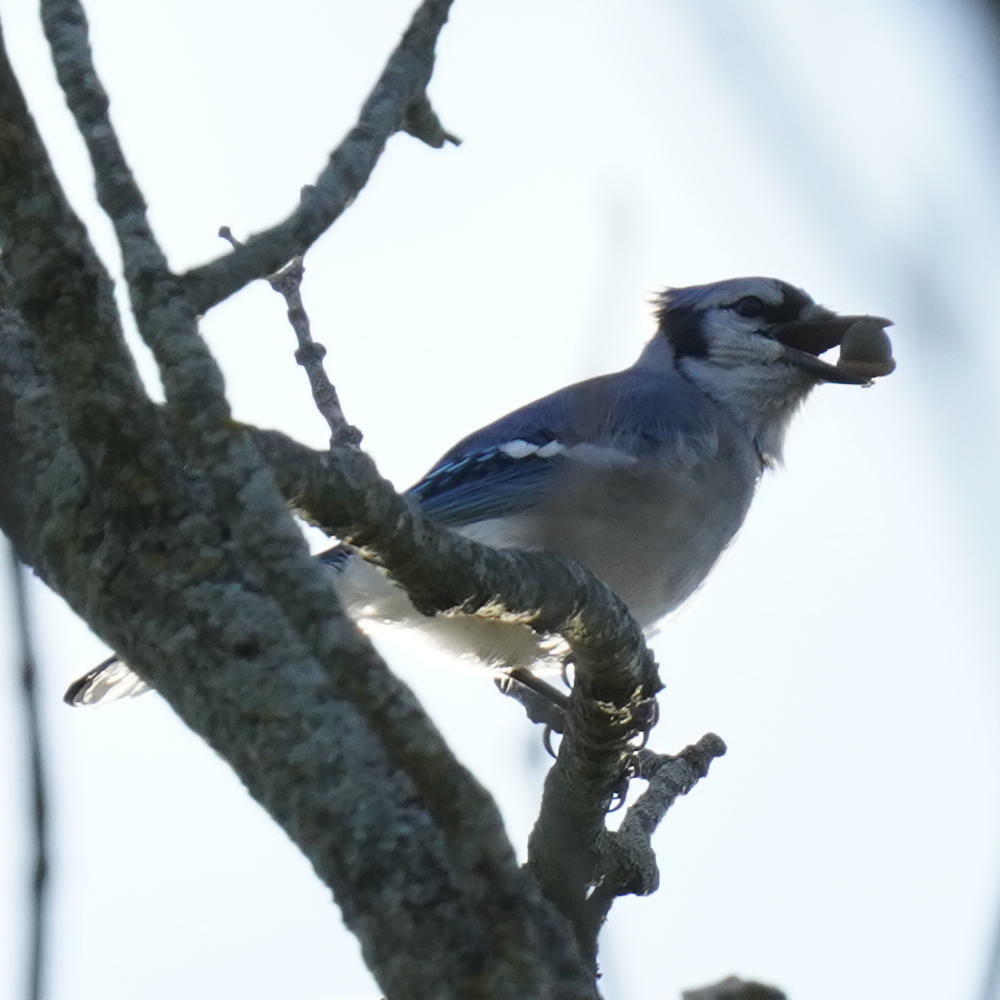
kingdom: Animalia
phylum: Chordata
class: Aves
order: Passeriformes
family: Corvidae
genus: Cyanocitta
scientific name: Cyanocitta cristata
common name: Blue jay
